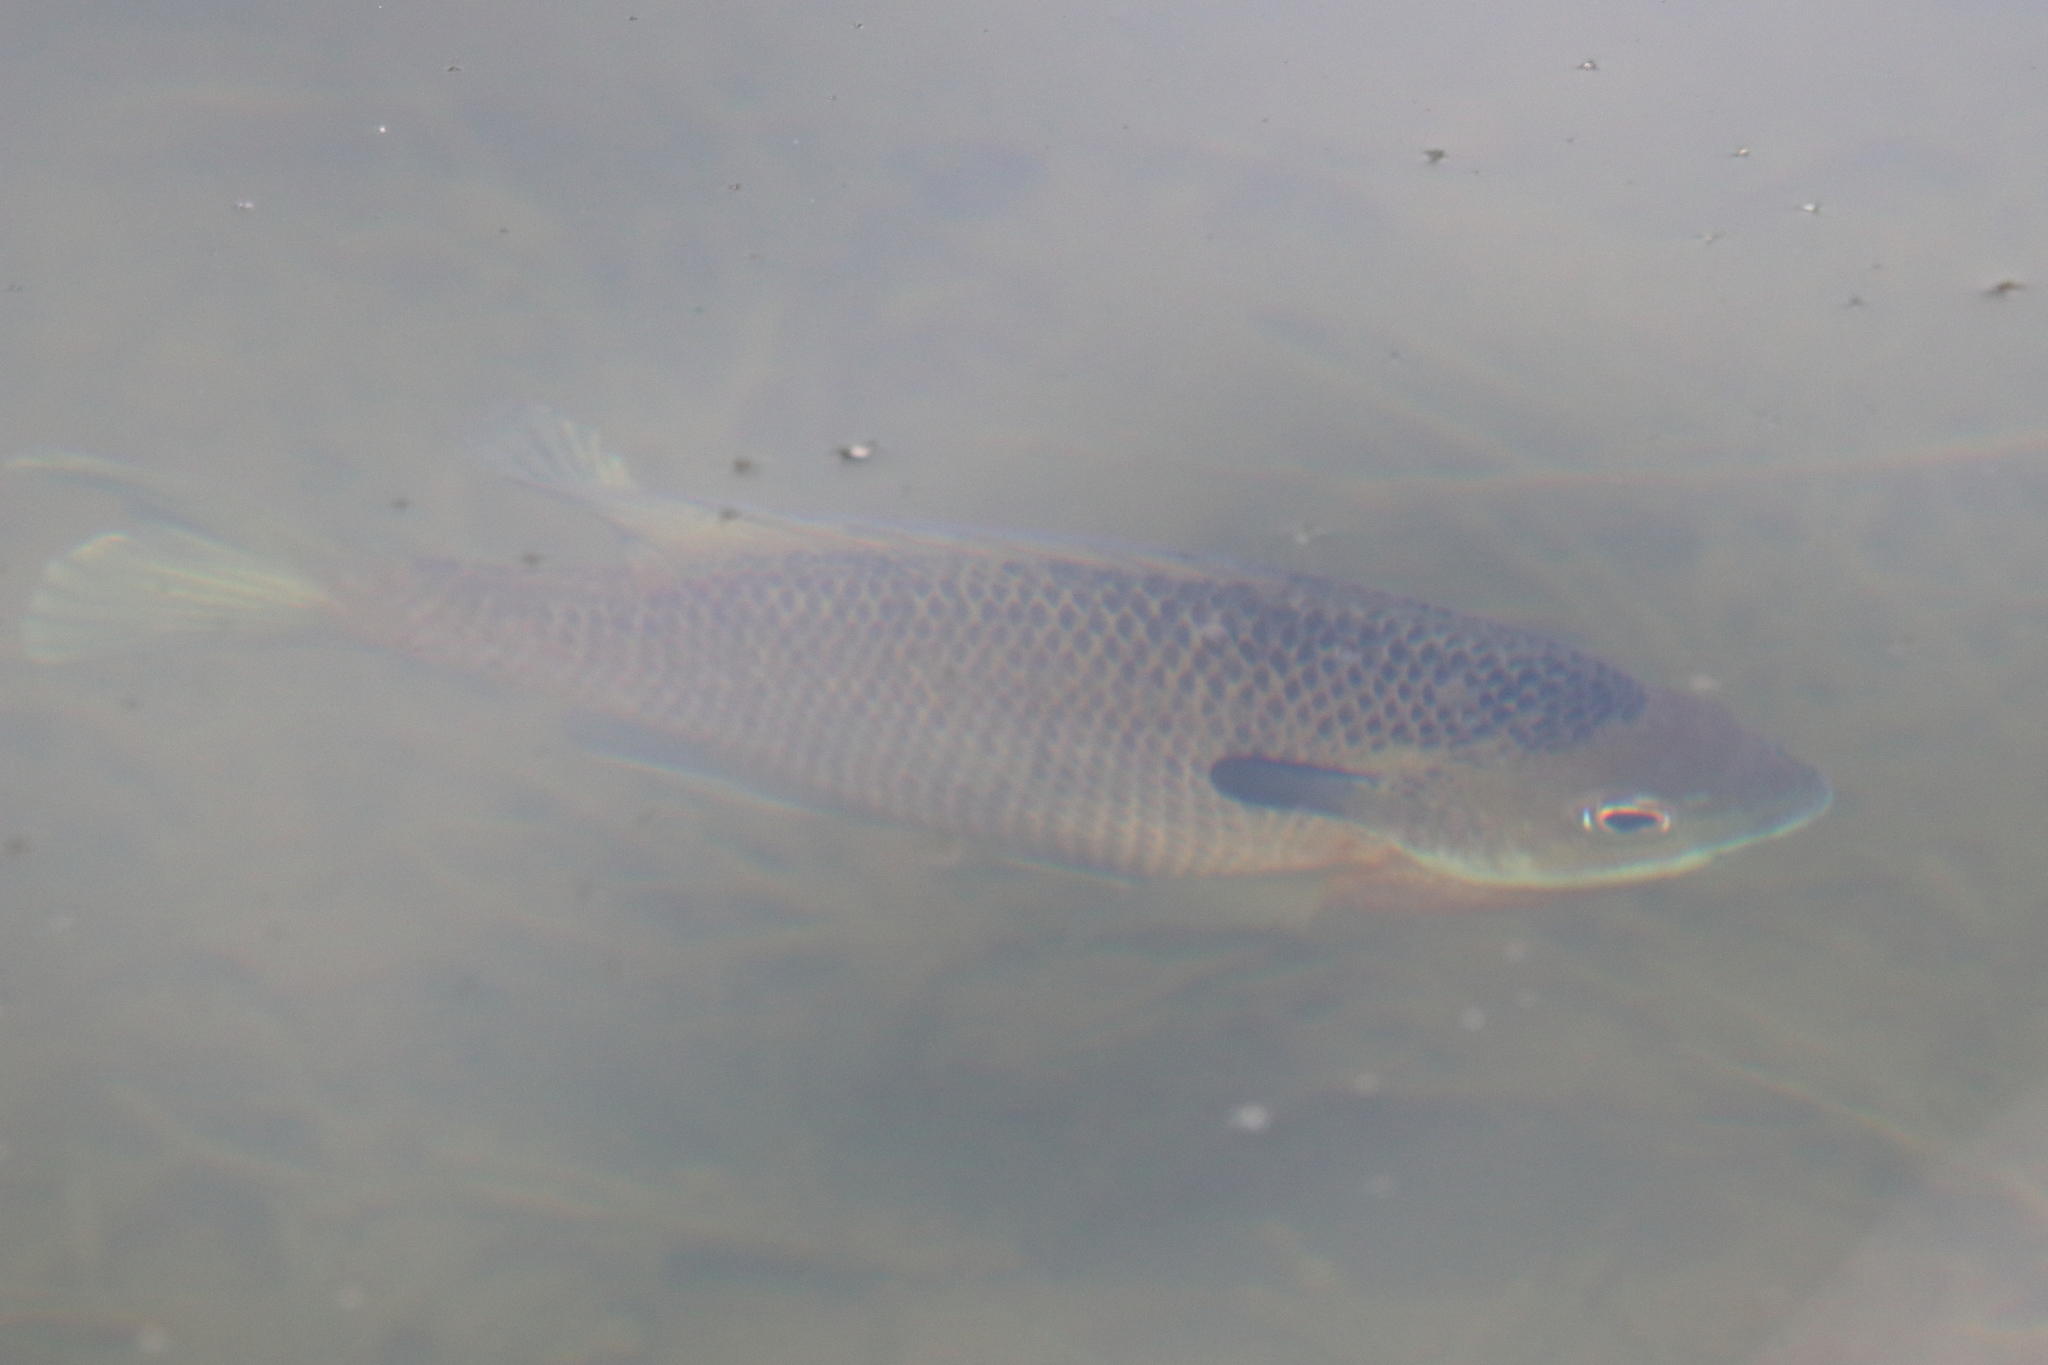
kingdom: Animalia
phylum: Chordata
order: Perciformes
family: Centrarchidae
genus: Lepomis
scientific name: Lepomis macrochirus
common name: Bluegill
